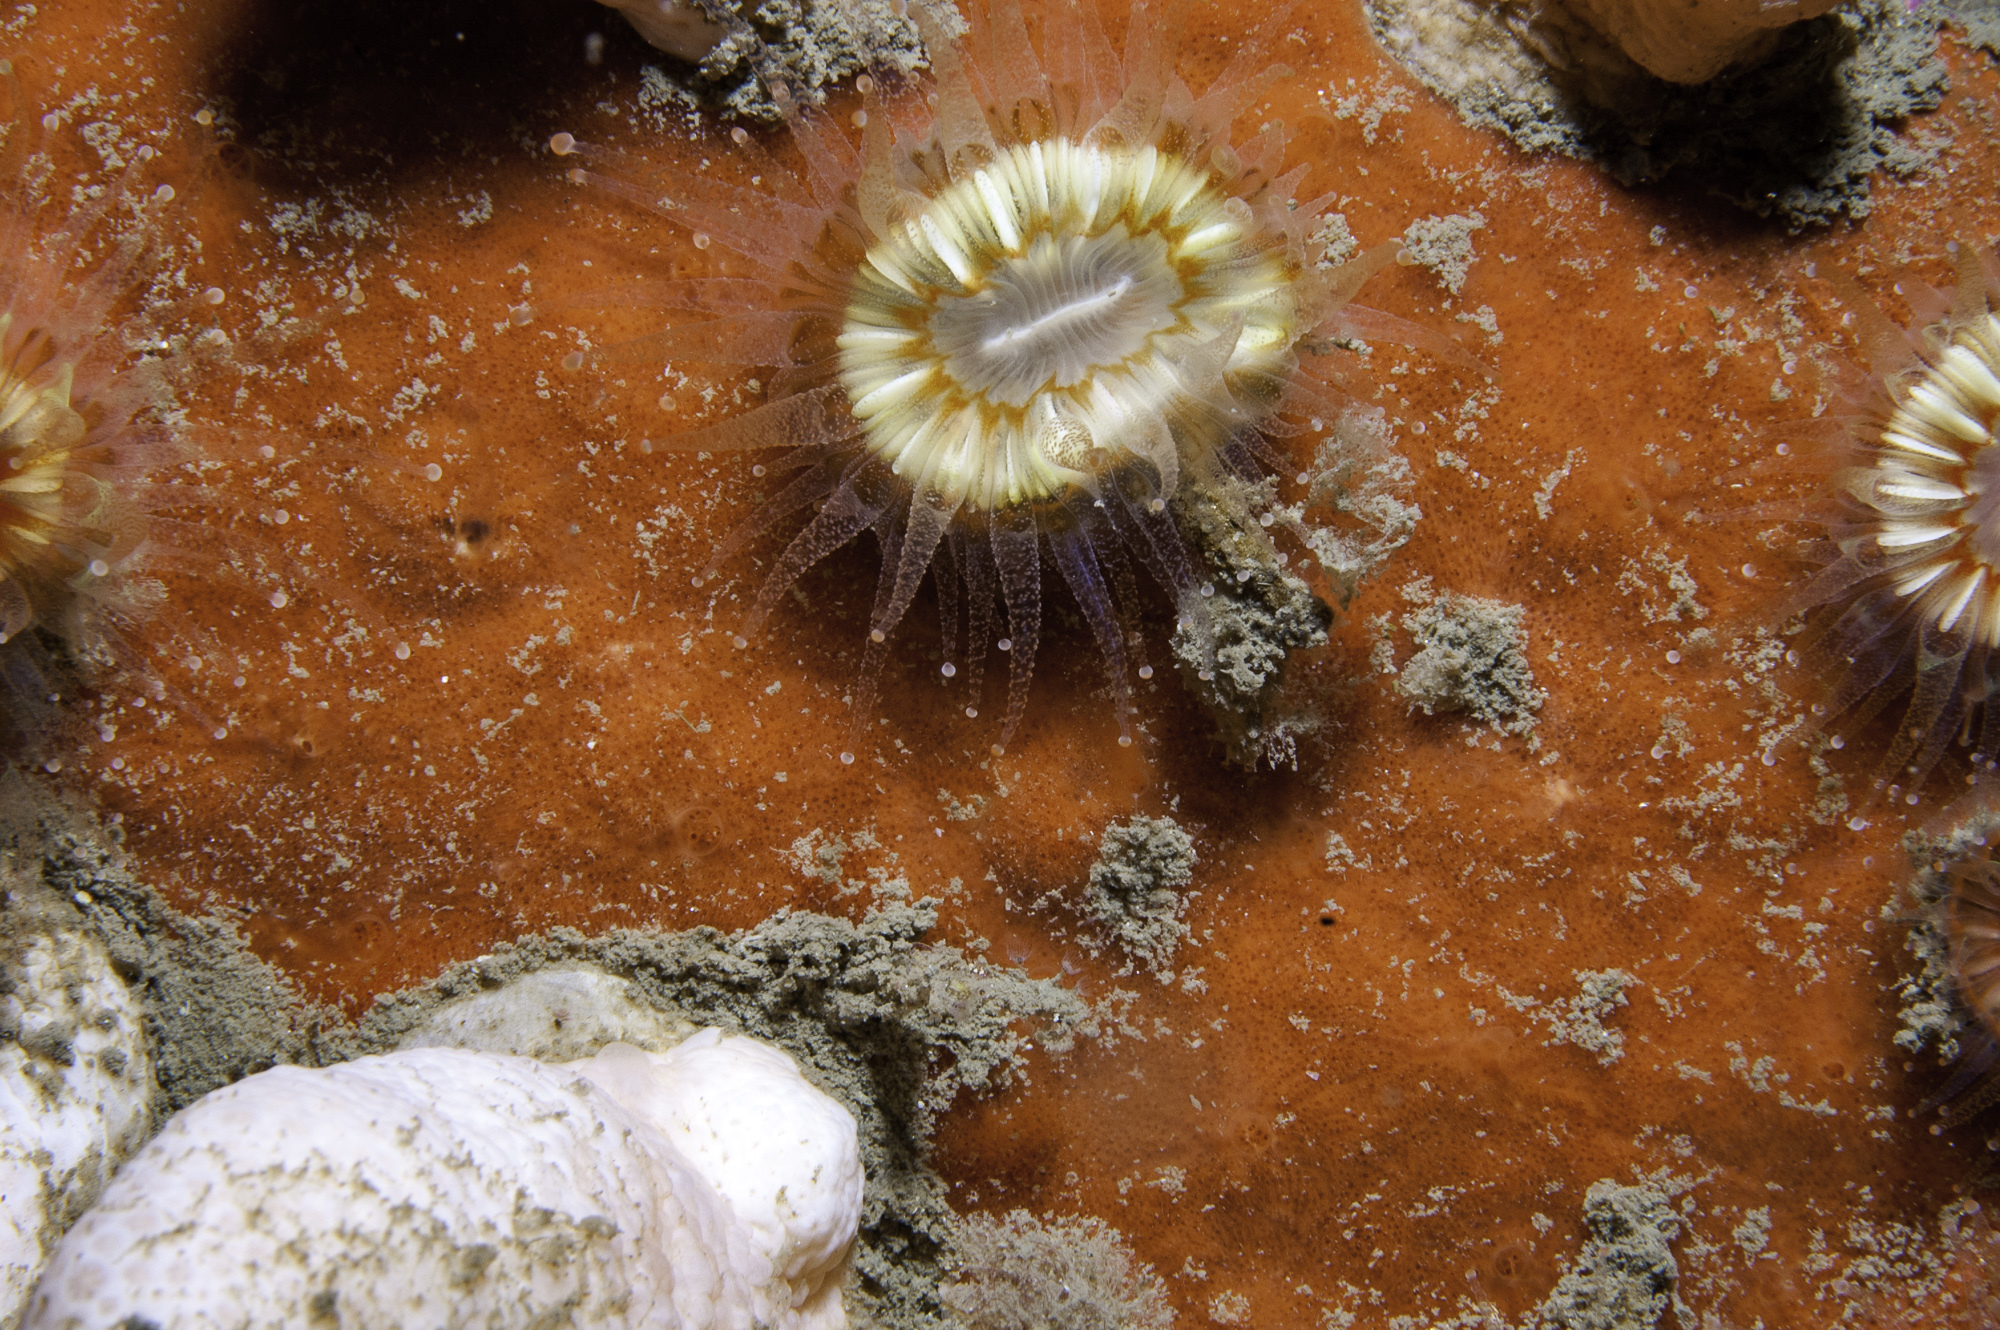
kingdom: Animalia
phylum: Porifera
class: Demospongiae
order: Poecilosclerida
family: Hymedesmiidae
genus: Plocamionida
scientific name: Plocamionida ambigua
